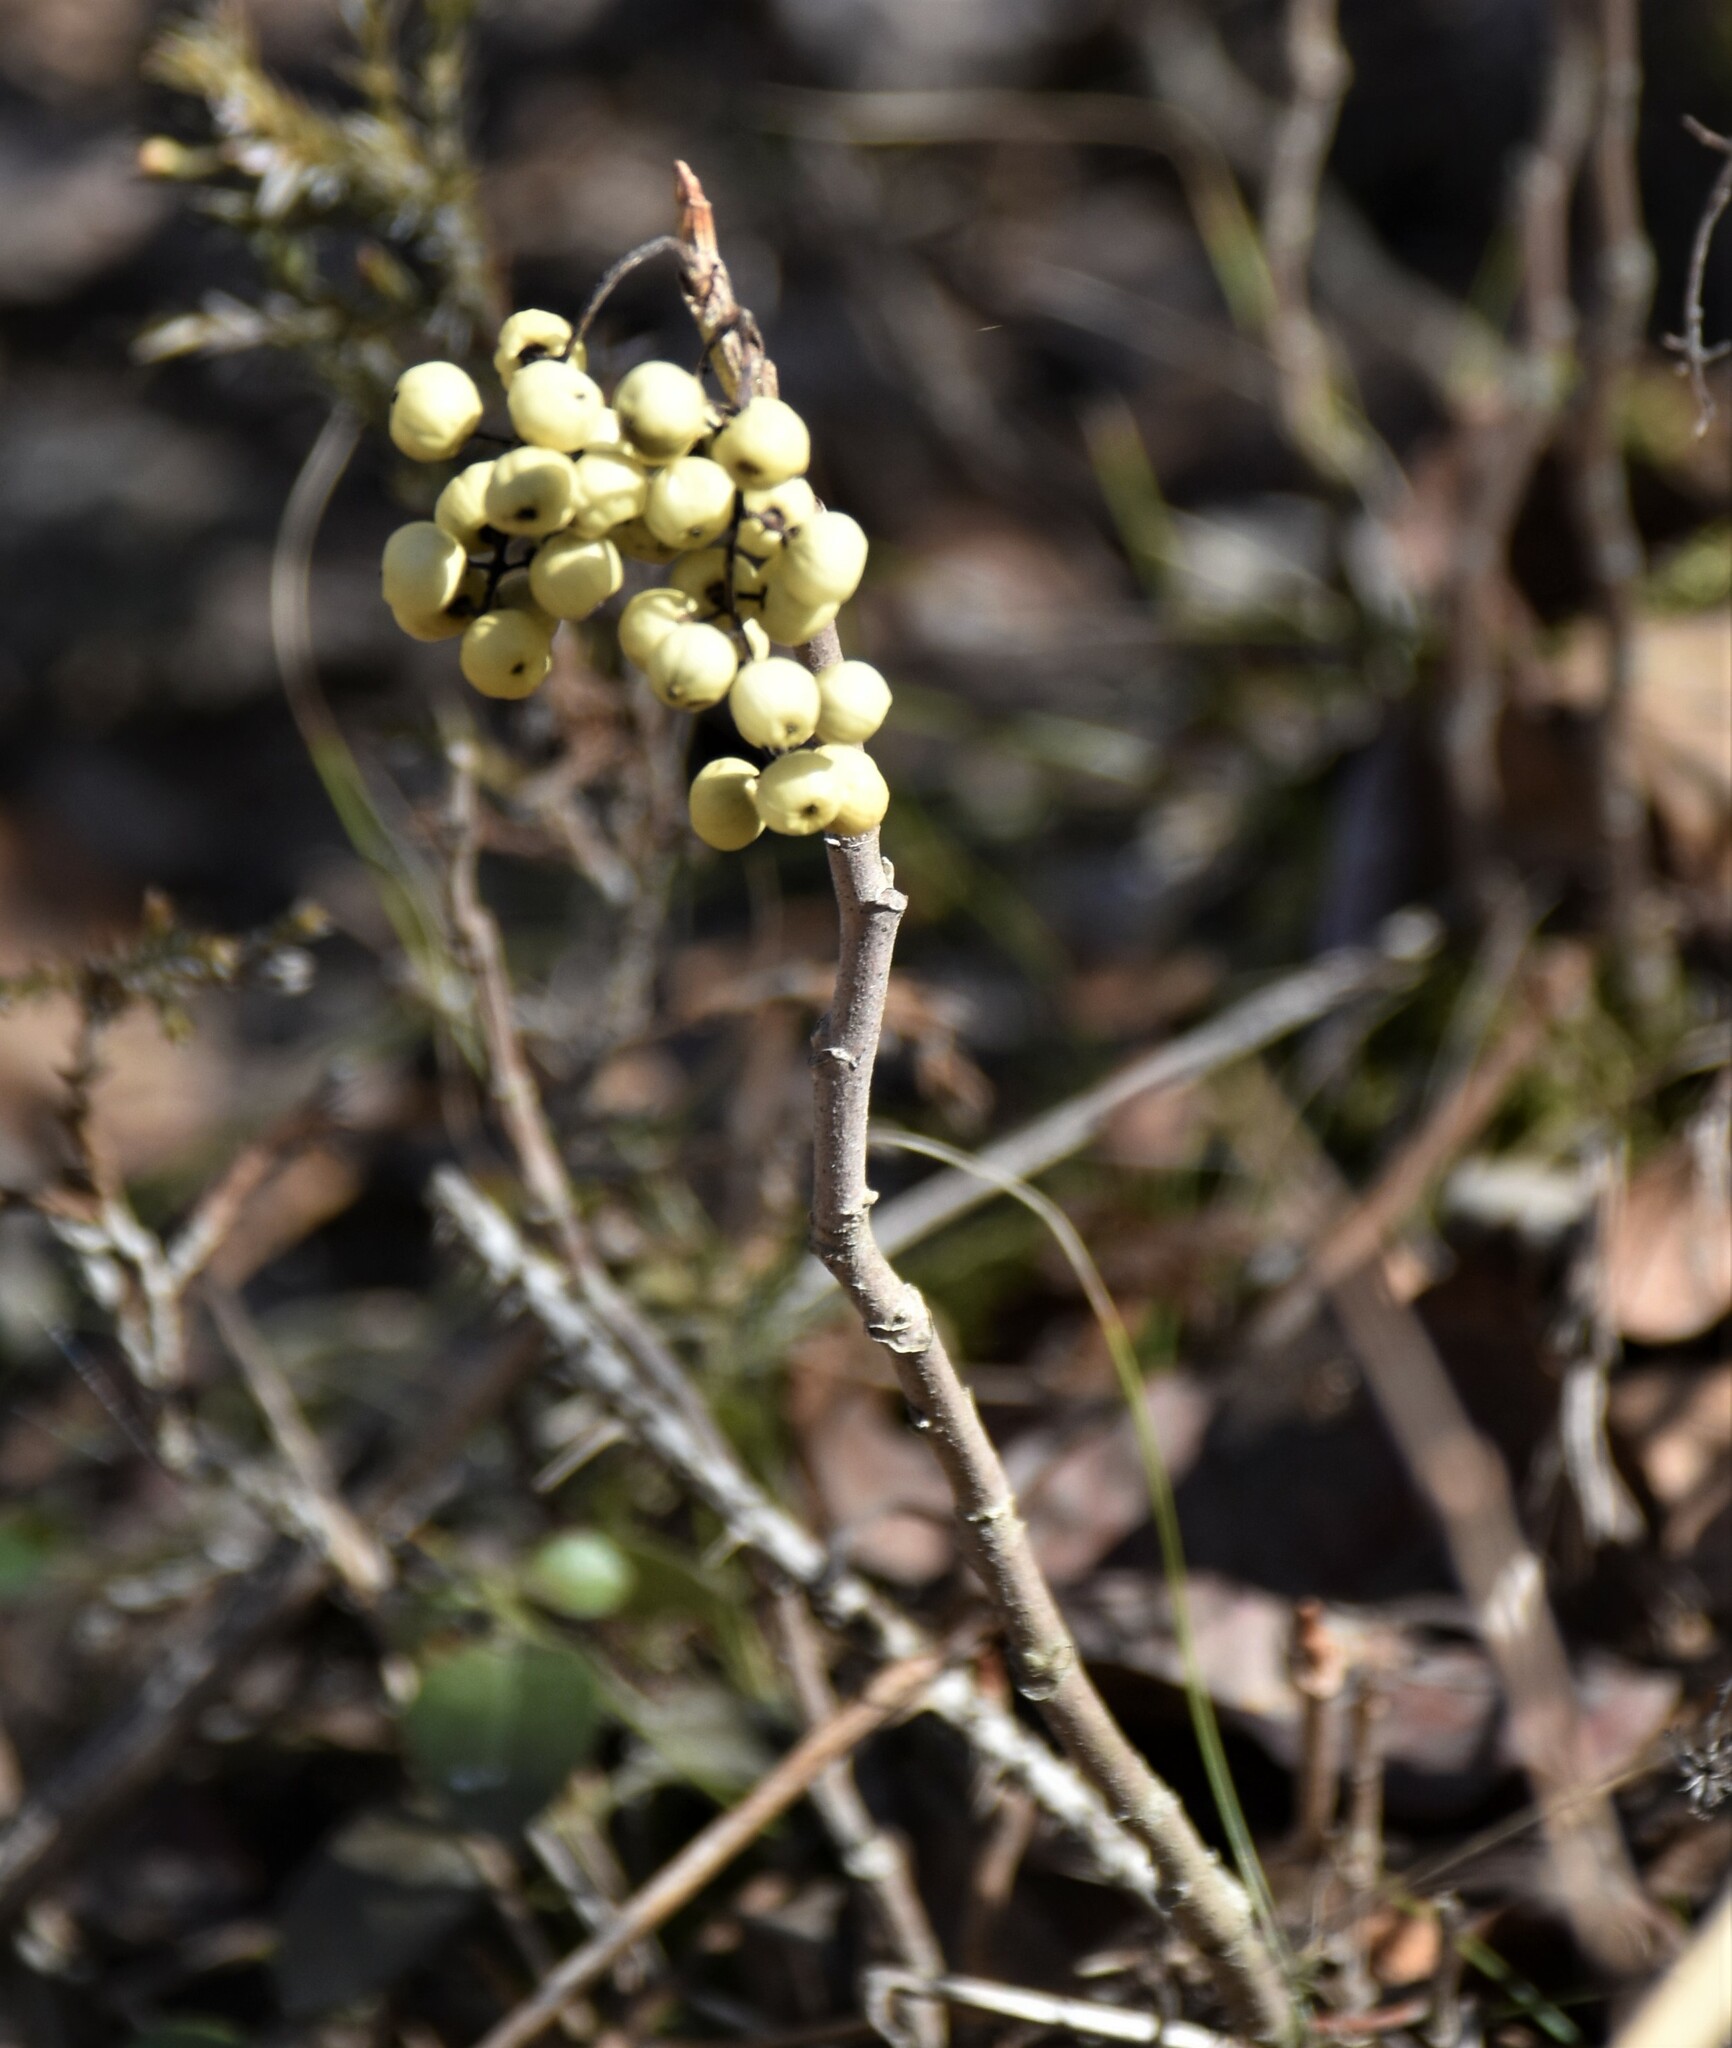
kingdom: Plantae
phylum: Tracheophyta
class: Magnoliopsida
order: Sapindales
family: Anacardiaceae
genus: Toxicodendron
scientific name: Toxicodendron rydbergii
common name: Rydberg's poison-ivy
